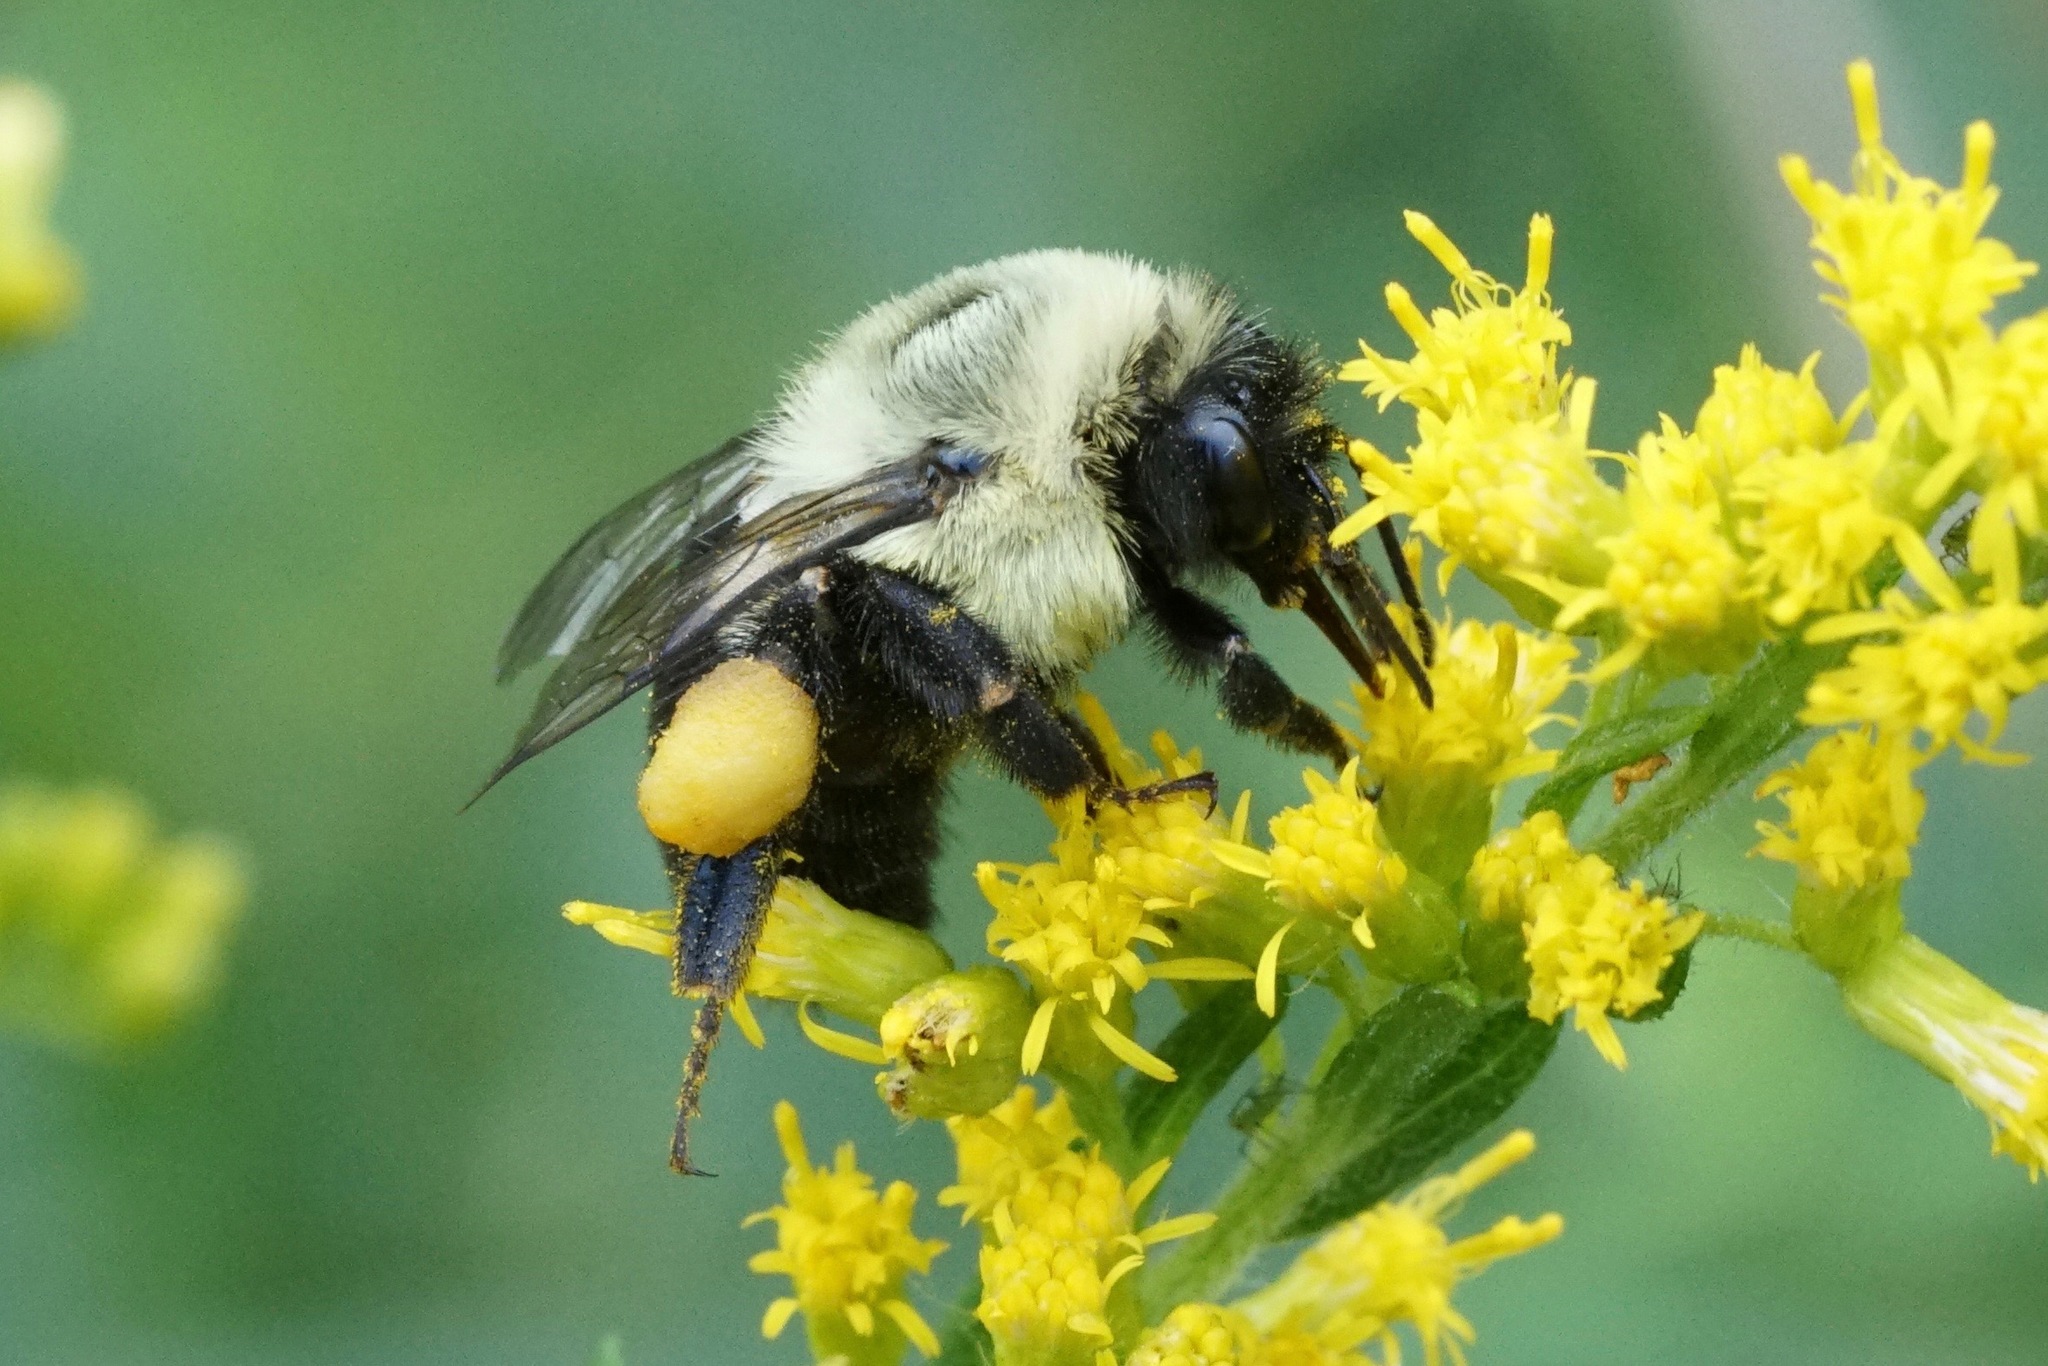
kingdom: Animalia
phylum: Arthropoda
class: Insecta
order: Hymenoptera
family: Apidae
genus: Bombus
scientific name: Bombus impatiens
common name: Common eastern bumble bee
